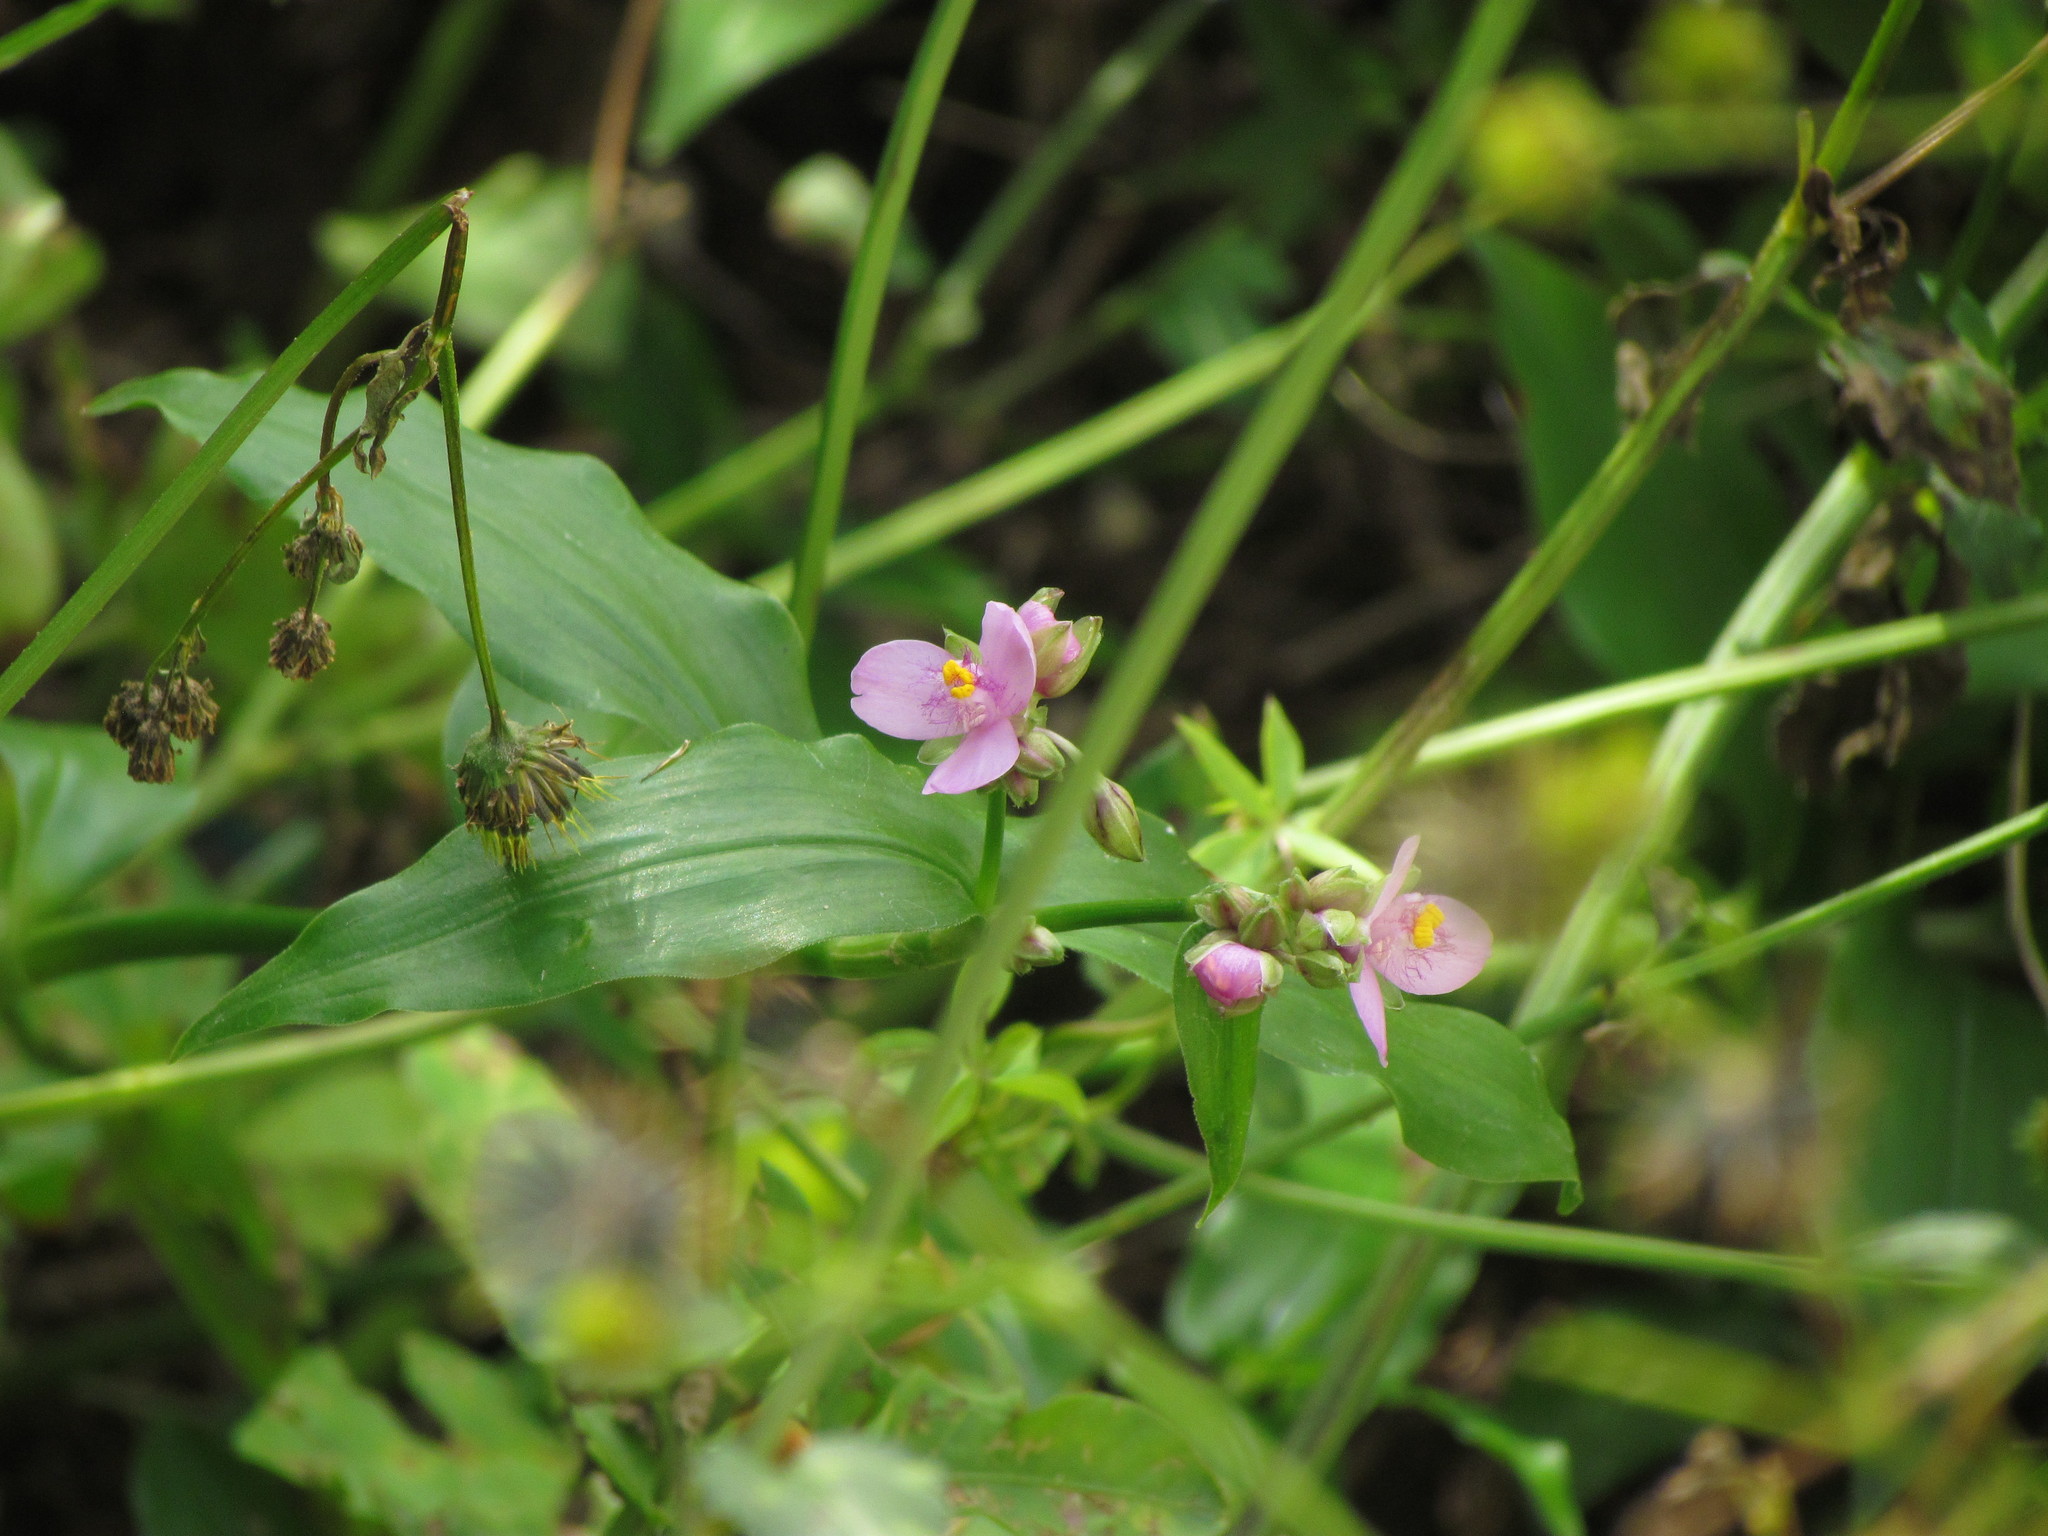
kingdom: Plantae
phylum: Tracheophyta
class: Liliopsida
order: Commelinales
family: Commelinaceae
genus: Callisia
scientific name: Callisia diuretica
